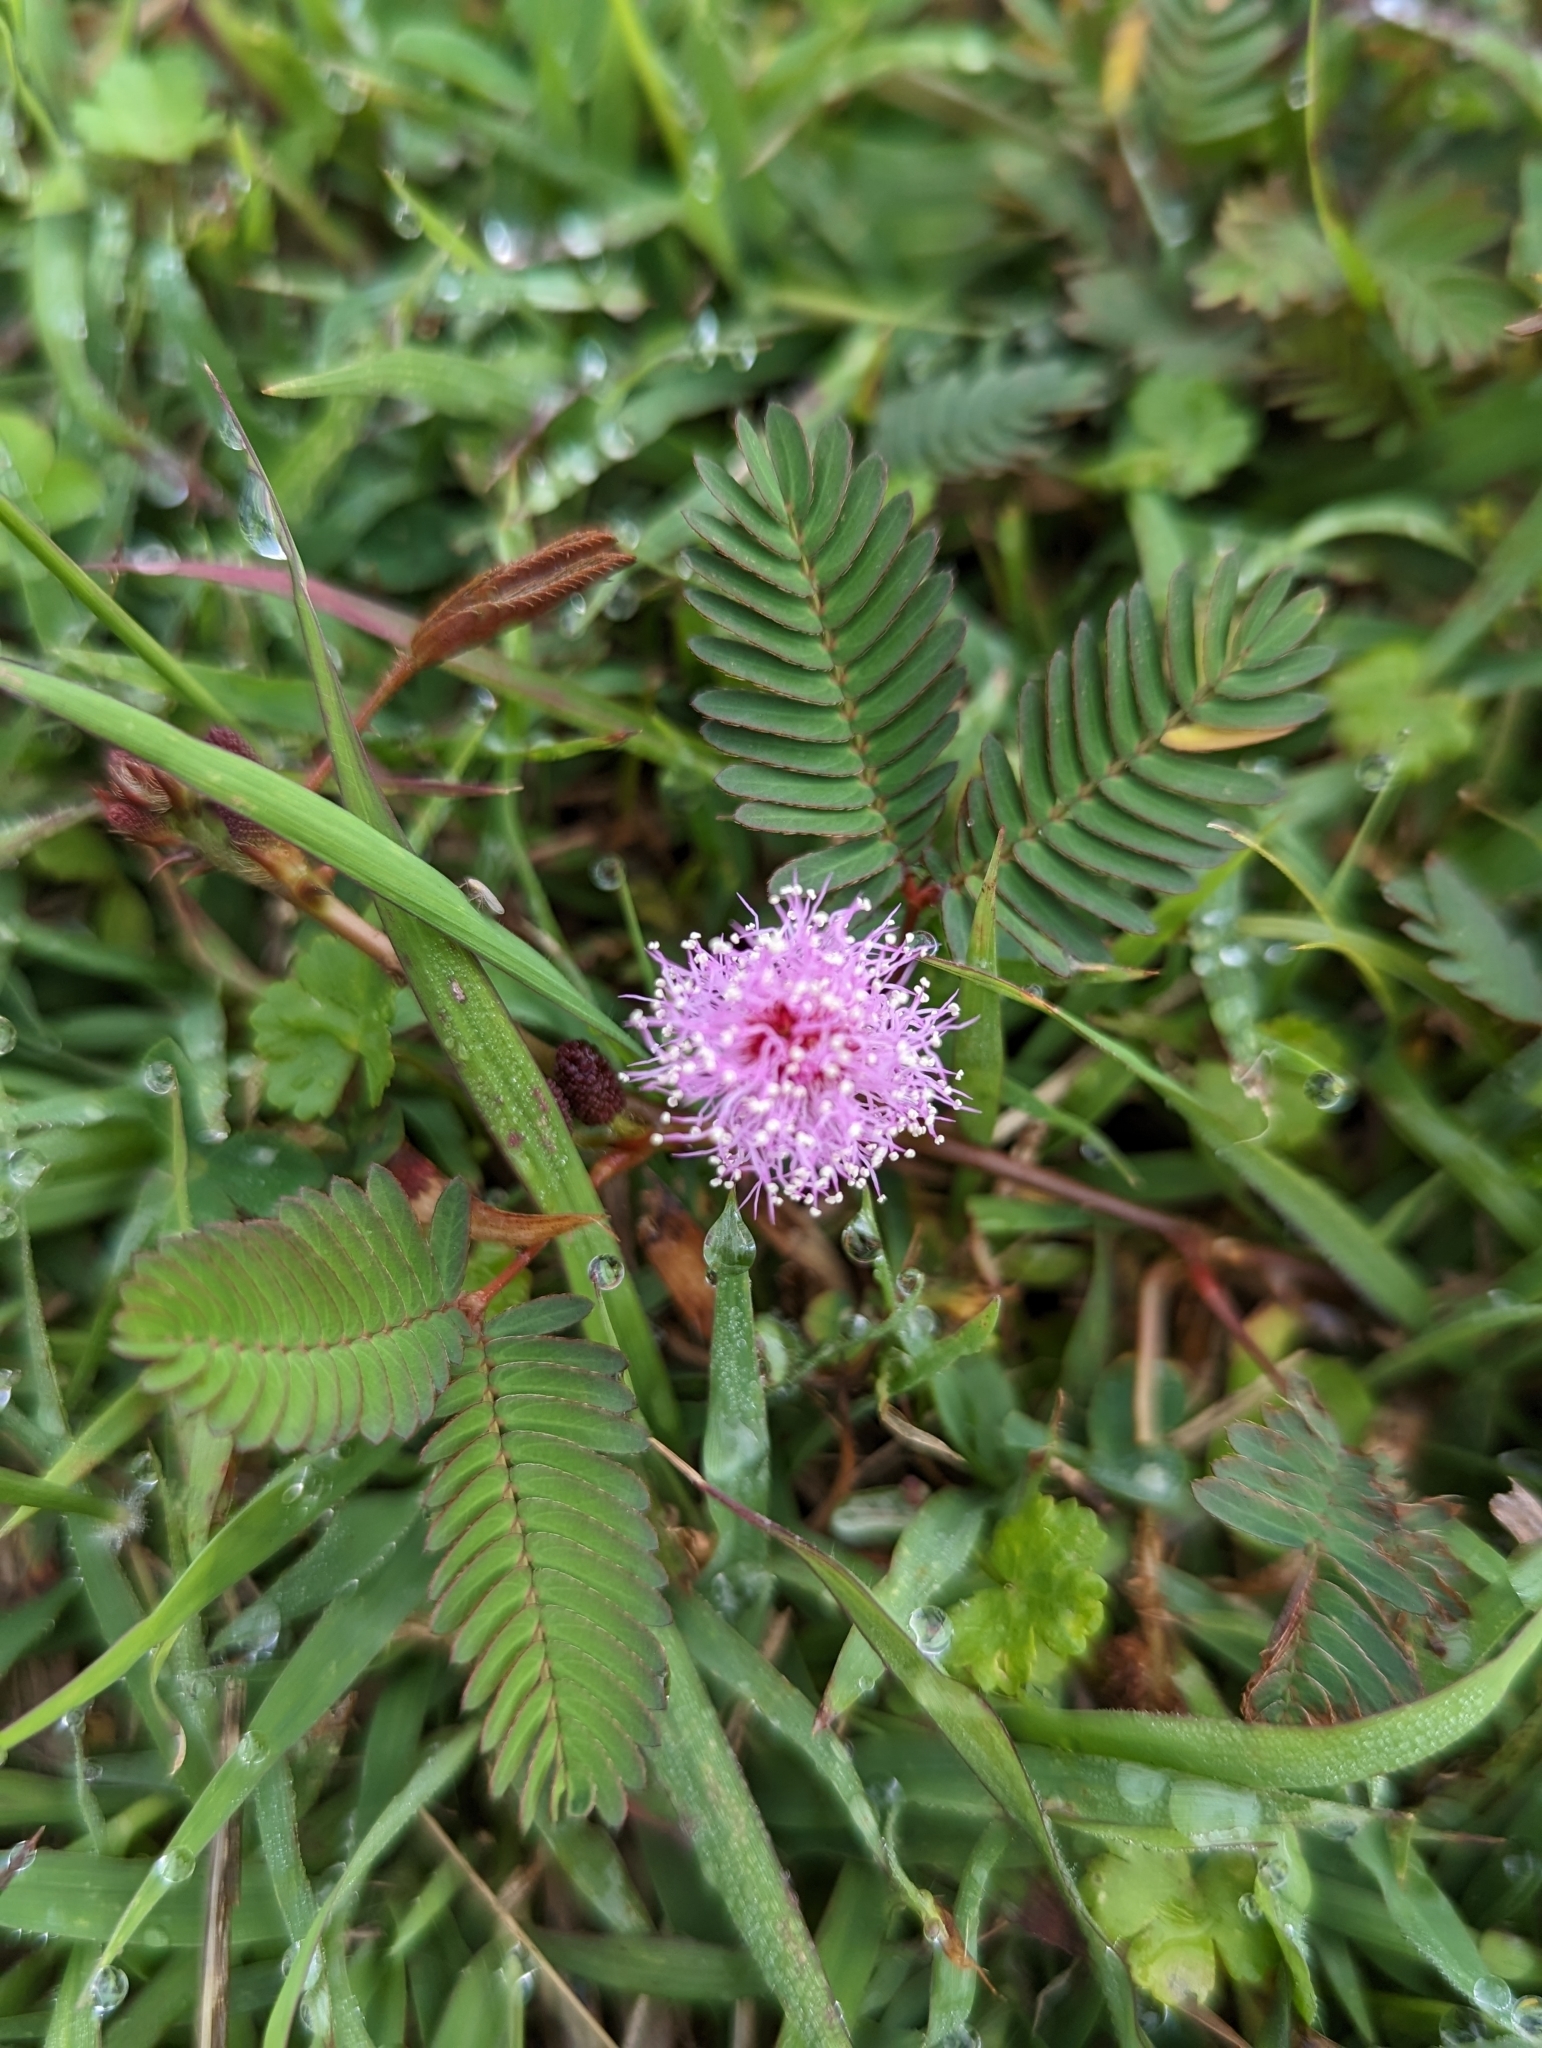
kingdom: Plantae
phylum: Tracheophyta
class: Magnoliopsida
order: Fabales
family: Fabaceae
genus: Mimosa
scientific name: Mimosa pudica
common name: Sensitive plant
